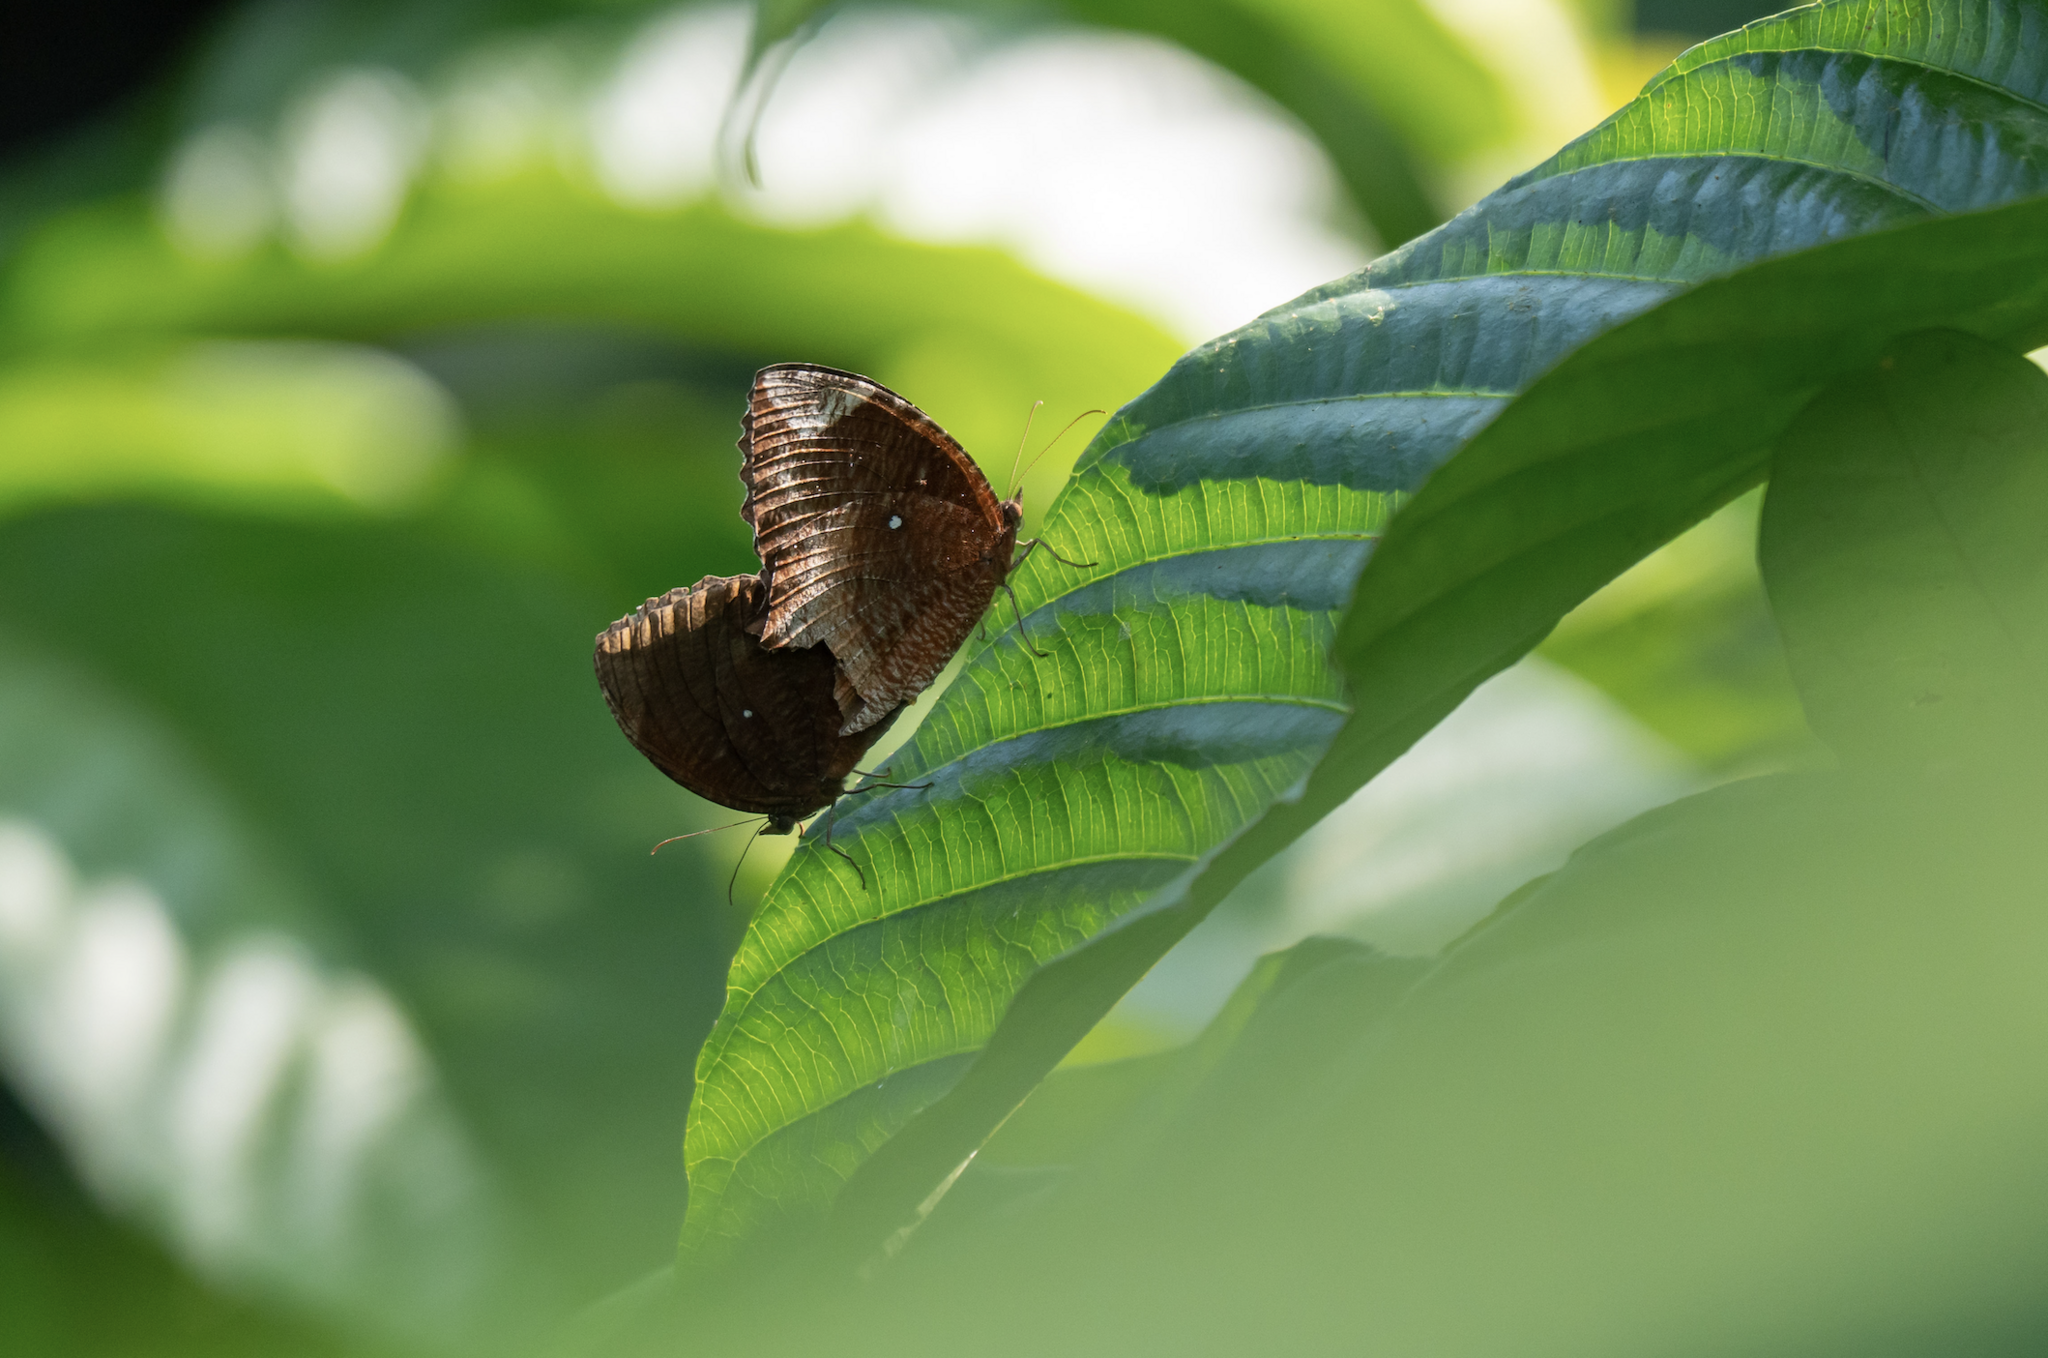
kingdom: Animalia
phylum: Arthropoda
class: Insecta
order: Lepidoptera
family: Nymphalidae
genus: Elymnias
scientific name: Elymnias hypermnestra
